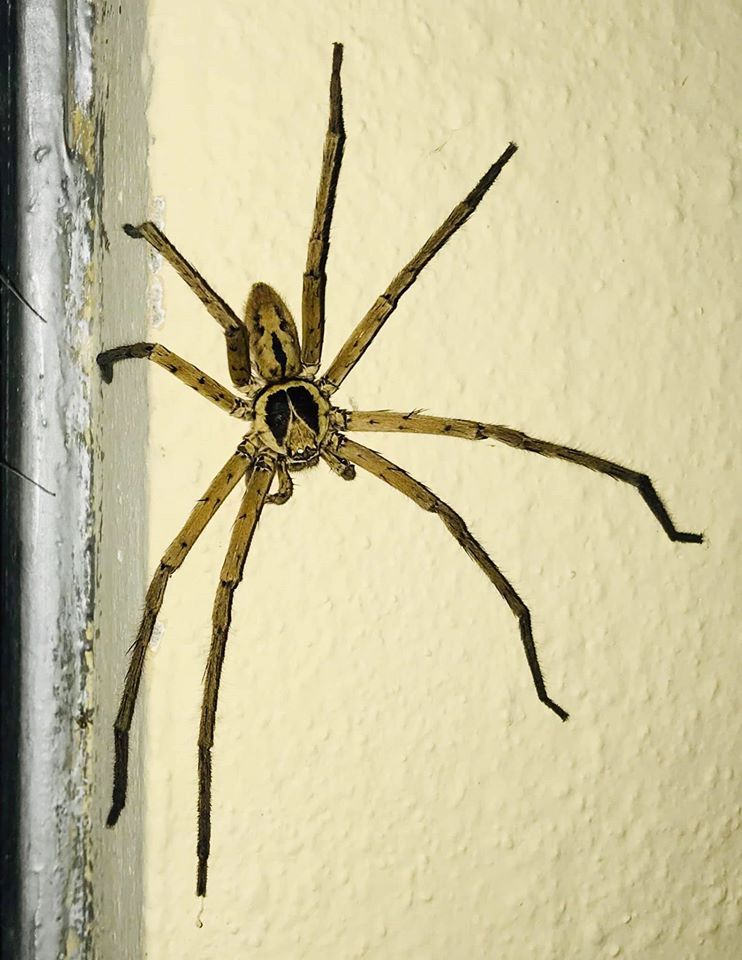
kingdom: Animalia
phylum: Arthropoda
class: Arachnida
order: Araneae
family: Sparassidae
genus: Heteropoda
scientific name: Heteropoda venatoria
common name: Huntsman spider
